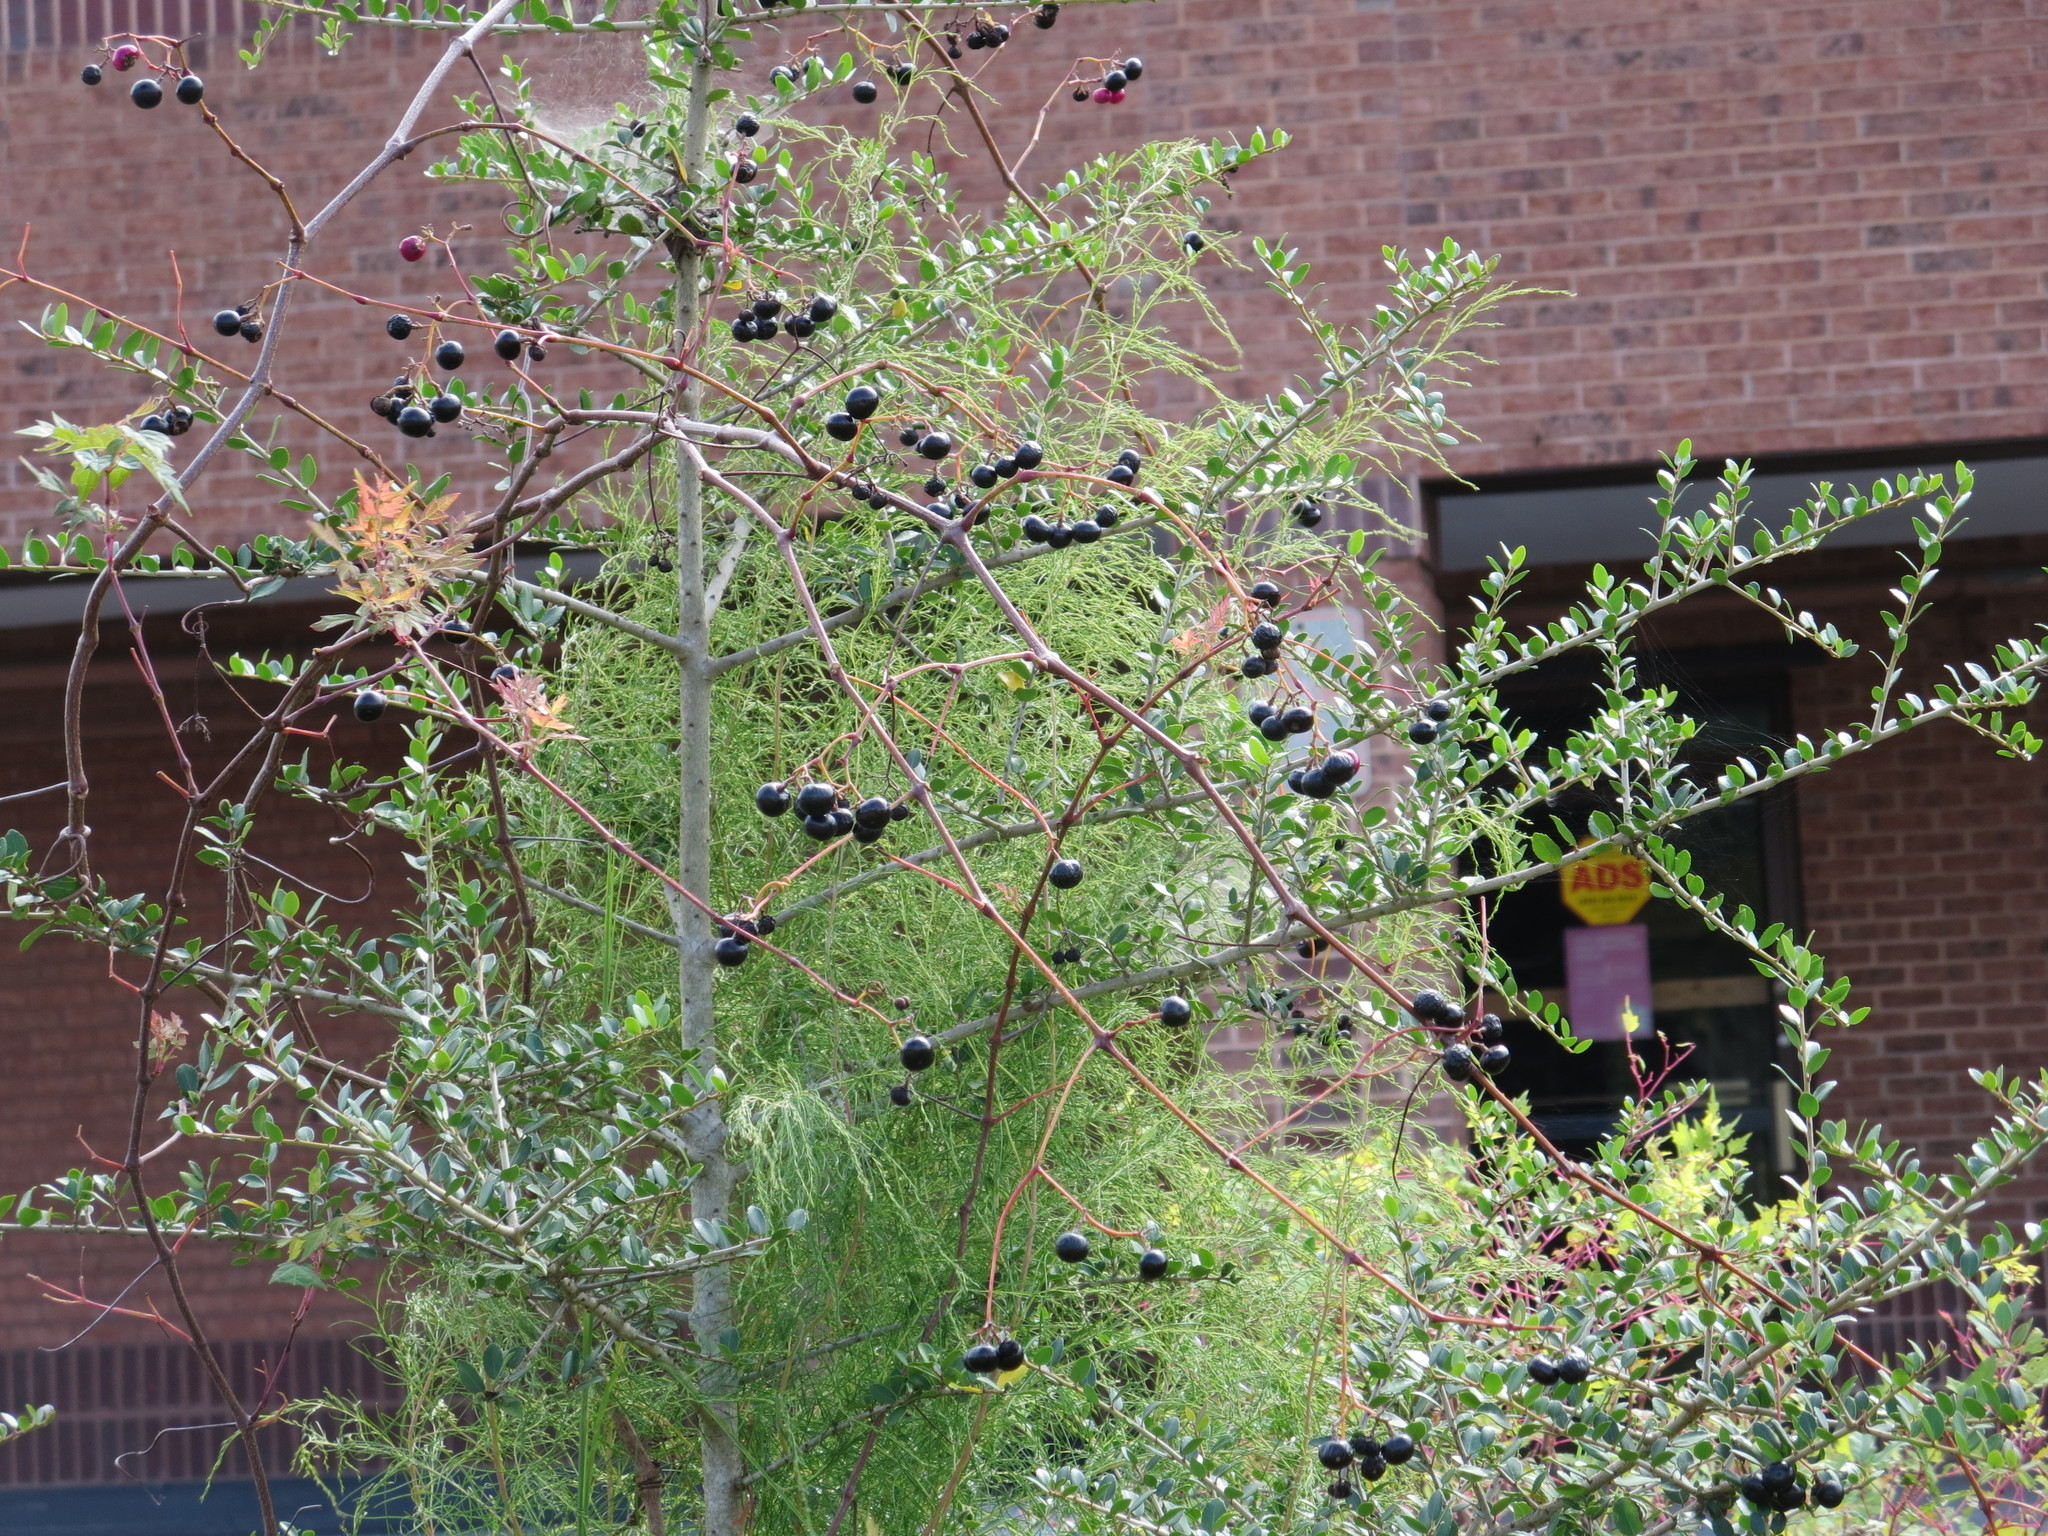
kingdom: Plantae
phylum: Tracheophyta
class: Magnoliopsida
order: Vitales
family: Vitaceae
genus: Nekemias
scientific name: Nekemias arborea
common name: Peppervine
